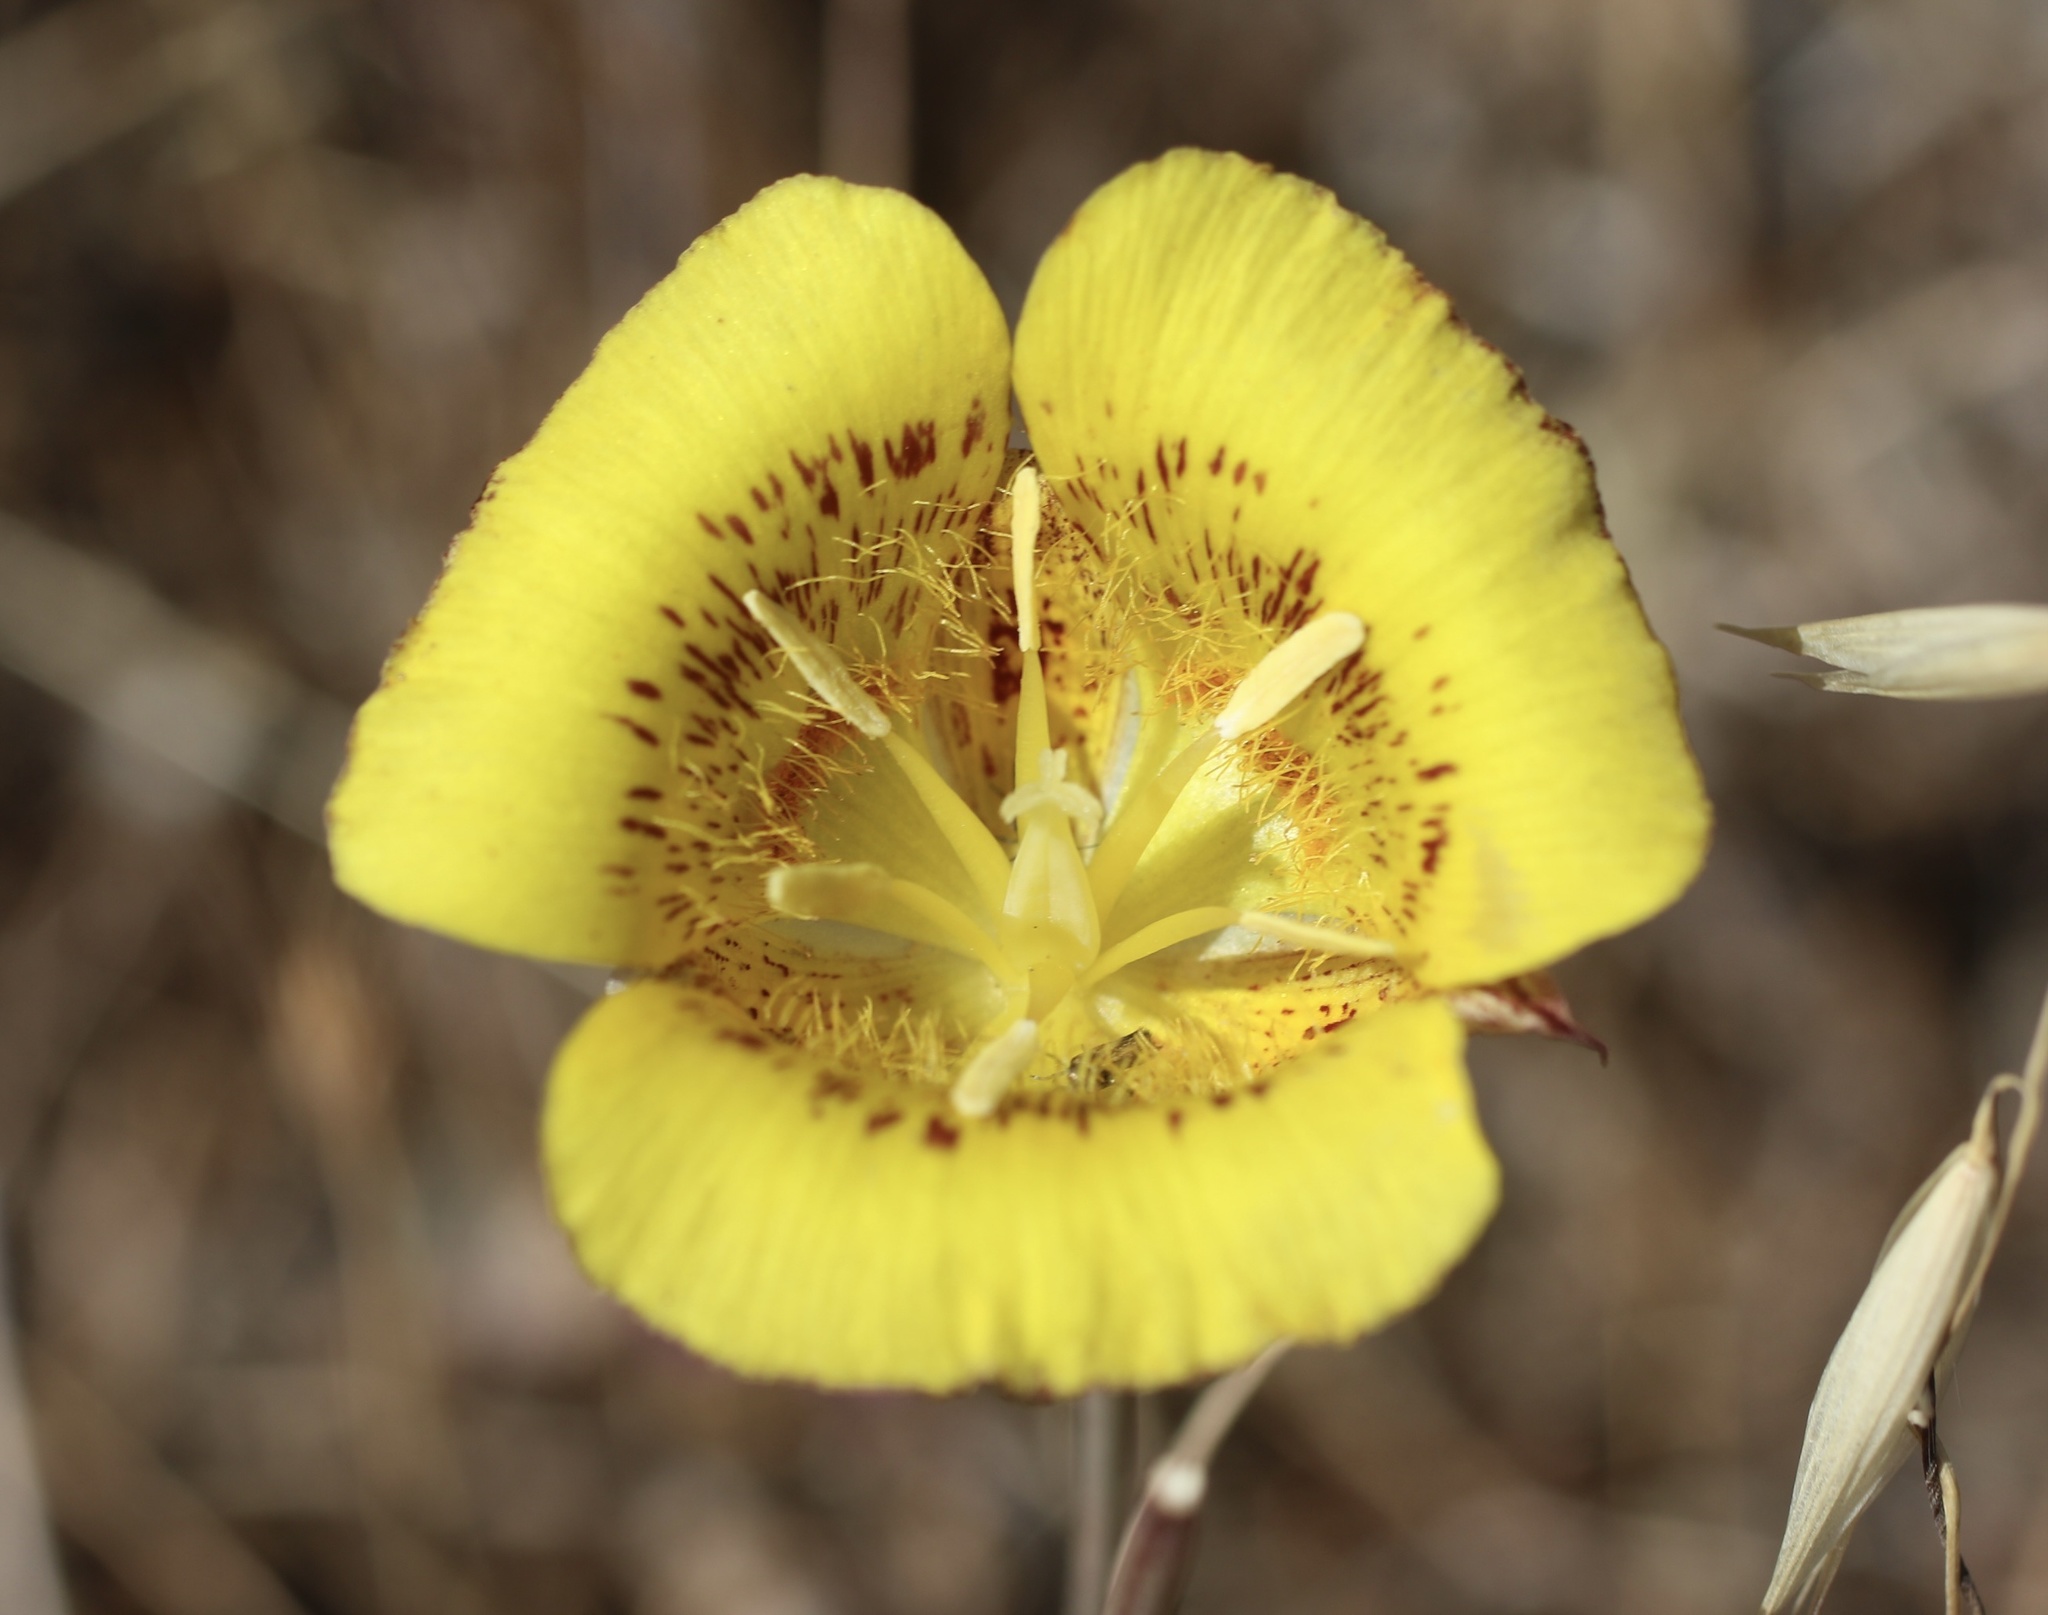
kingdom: Plantae
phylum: Tracheophyta
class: Liliopsida
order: Liliales
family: Liliaceae
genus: Calochortus
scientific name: Calochortus luteus
